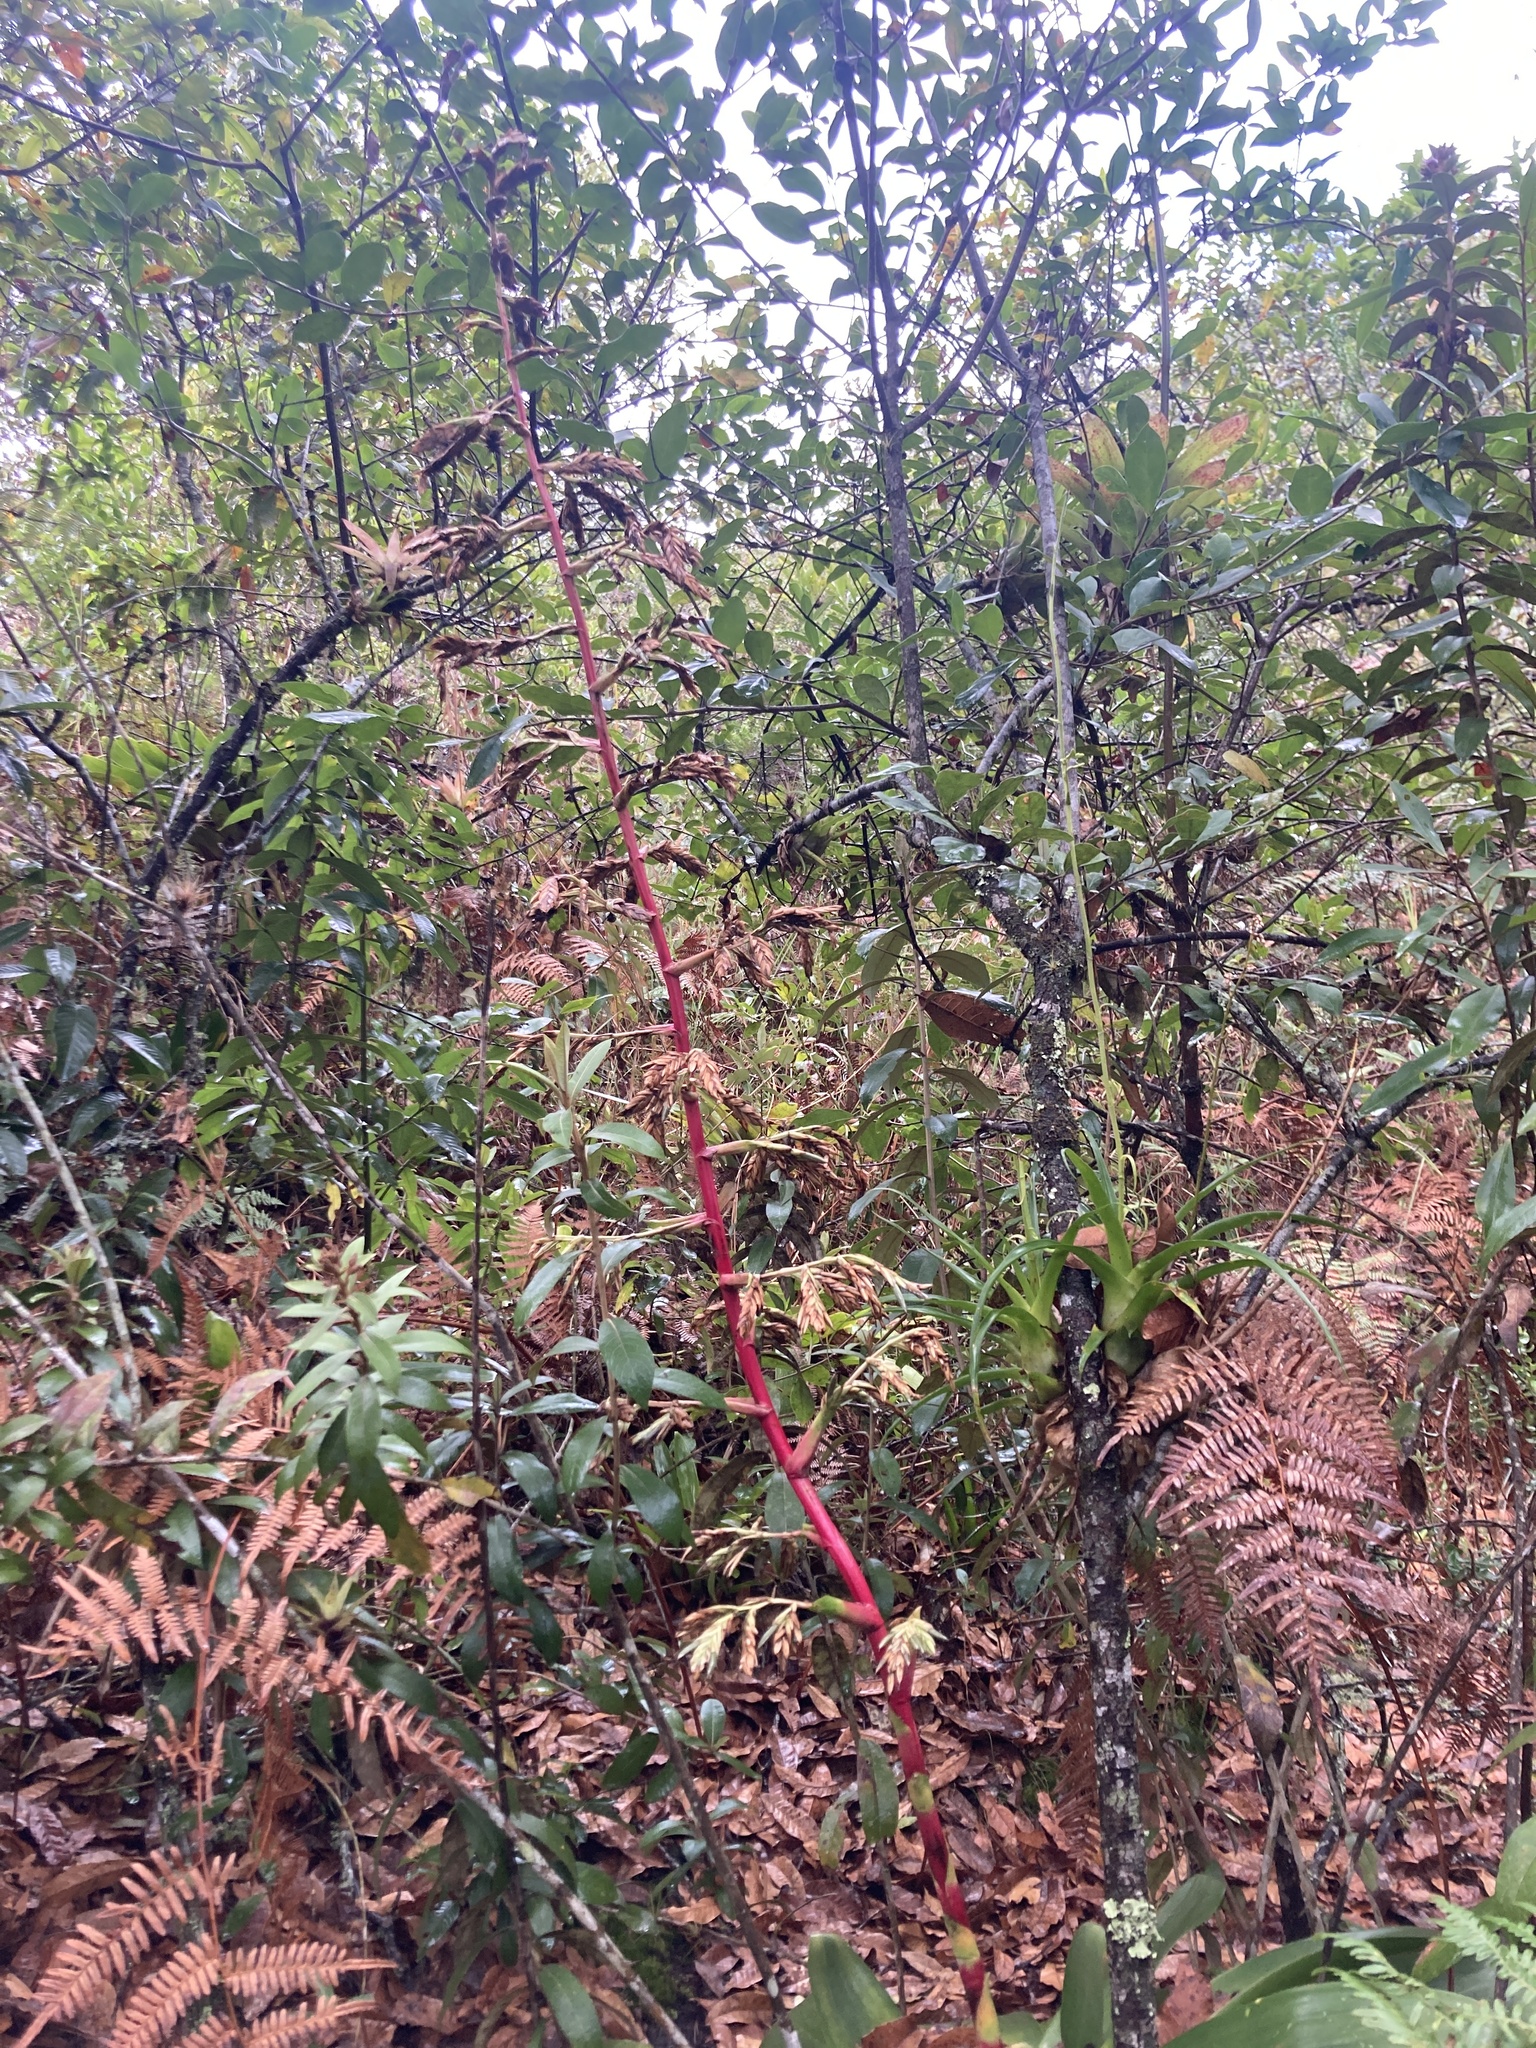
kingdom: Plantae
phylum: Tracheophyta
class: Liliopsida
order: Poales
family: Bromeliaceae
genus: Tillandsia
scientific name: Tillandsia tovarensis
